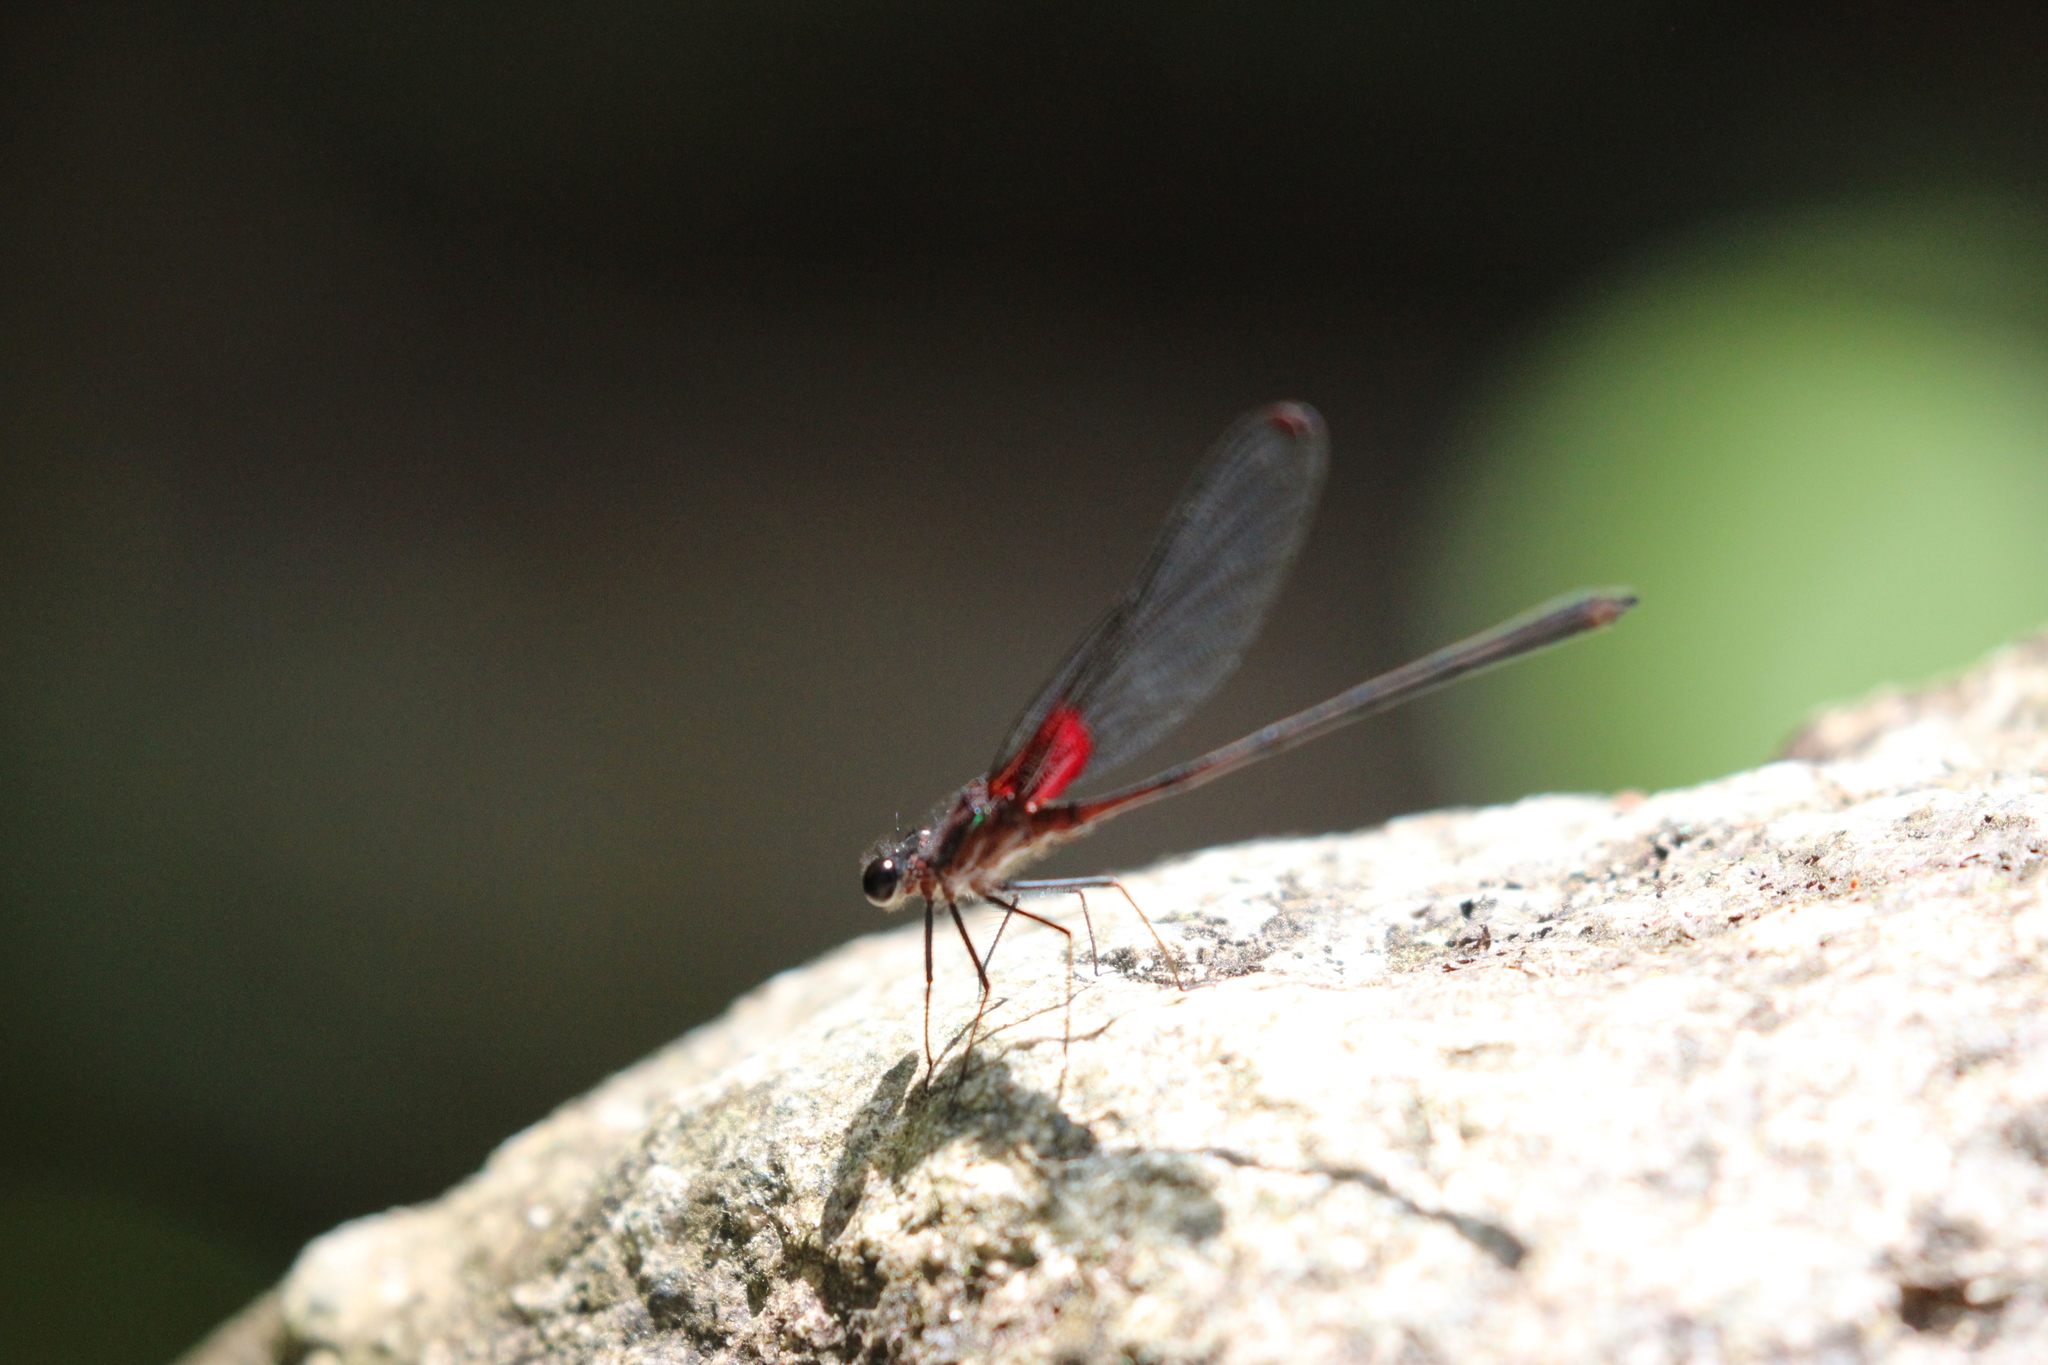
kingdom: Animalia
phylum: Arthropoda
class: Insecta
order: Odonata
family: Calopterygidae
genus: Hetaerina
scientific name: Hetaerina cruentata
